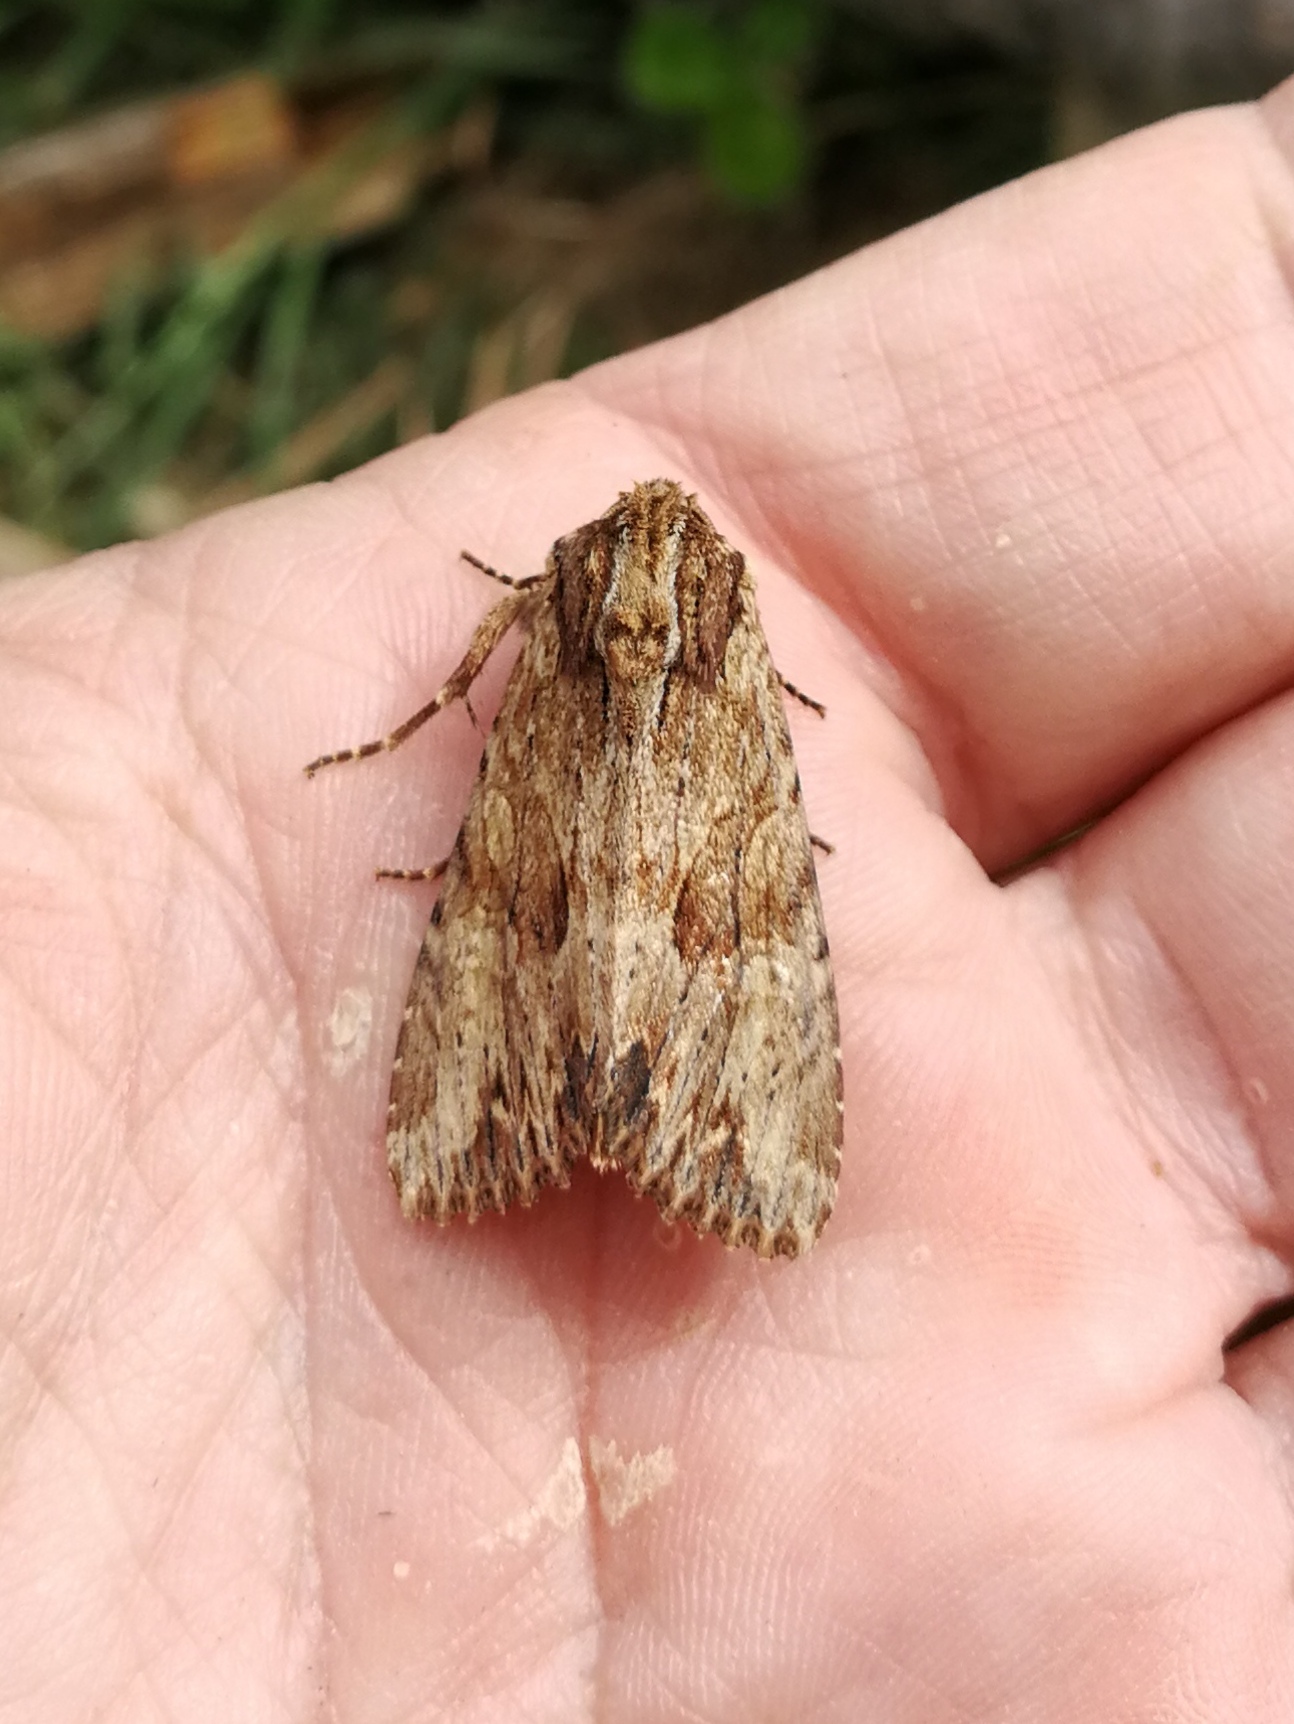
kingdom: Animalia
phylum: Arthropoda
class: Insecta
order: Lepidoptera
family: Noctuidae
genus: Apamea
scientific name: Apamea syriaca
